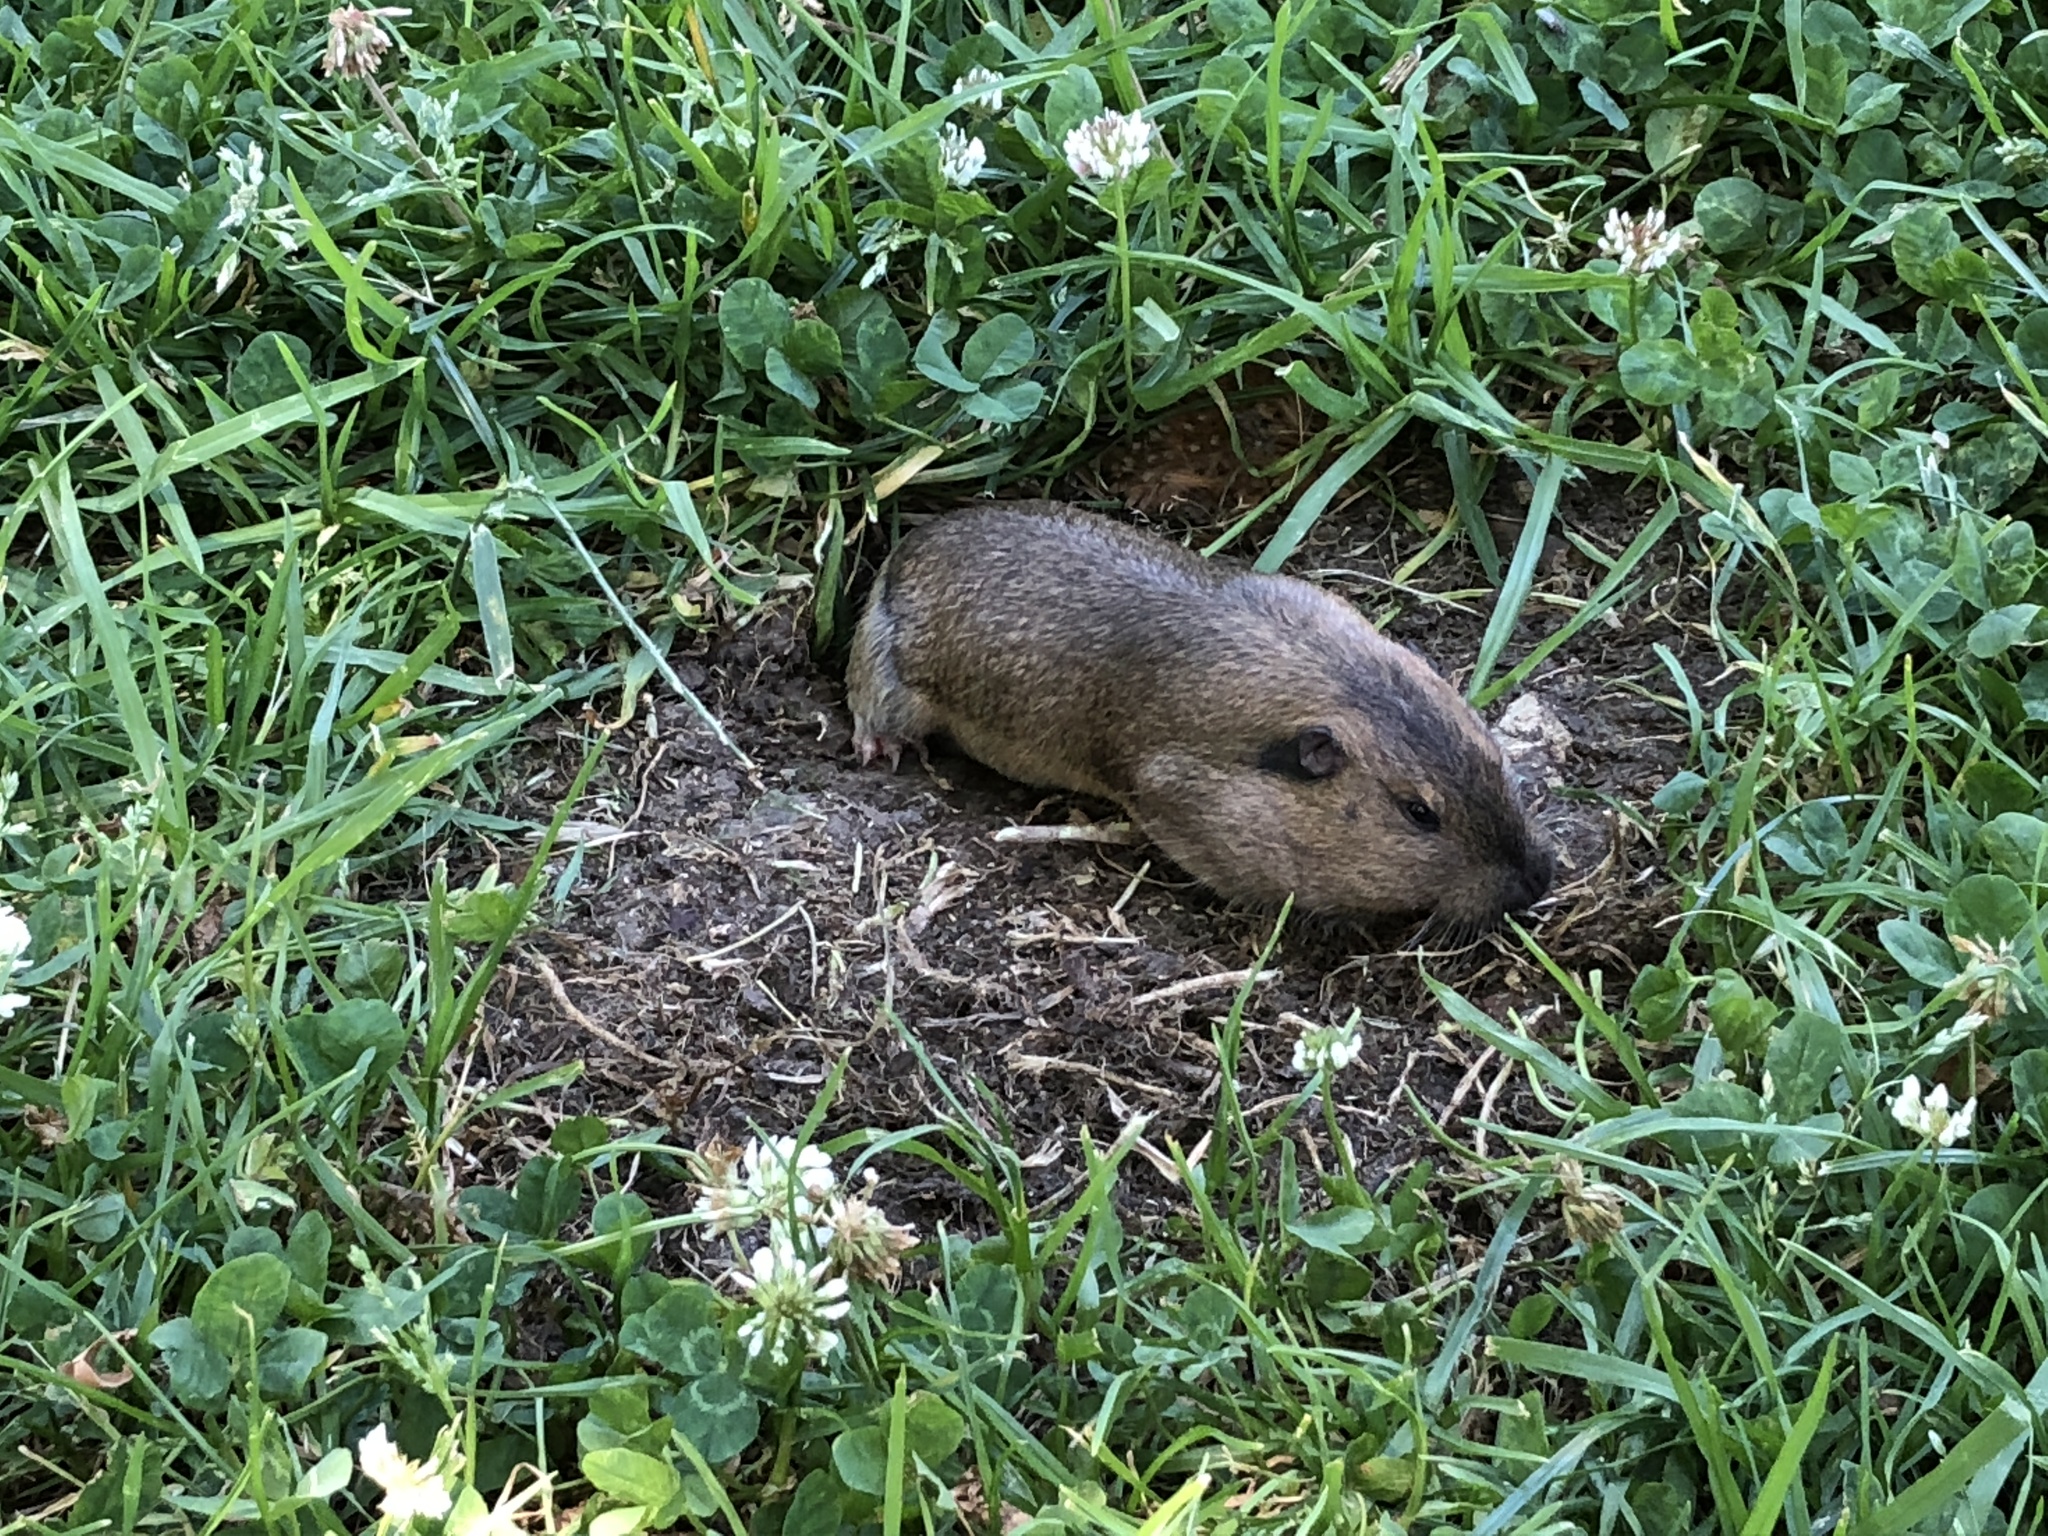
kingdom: Animalia
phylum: Chordata
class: Mammalia
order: Rodentia
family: Geomyidae
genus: Thomomys
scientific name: Thomomys bottae
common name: Botta's pocket gopher
